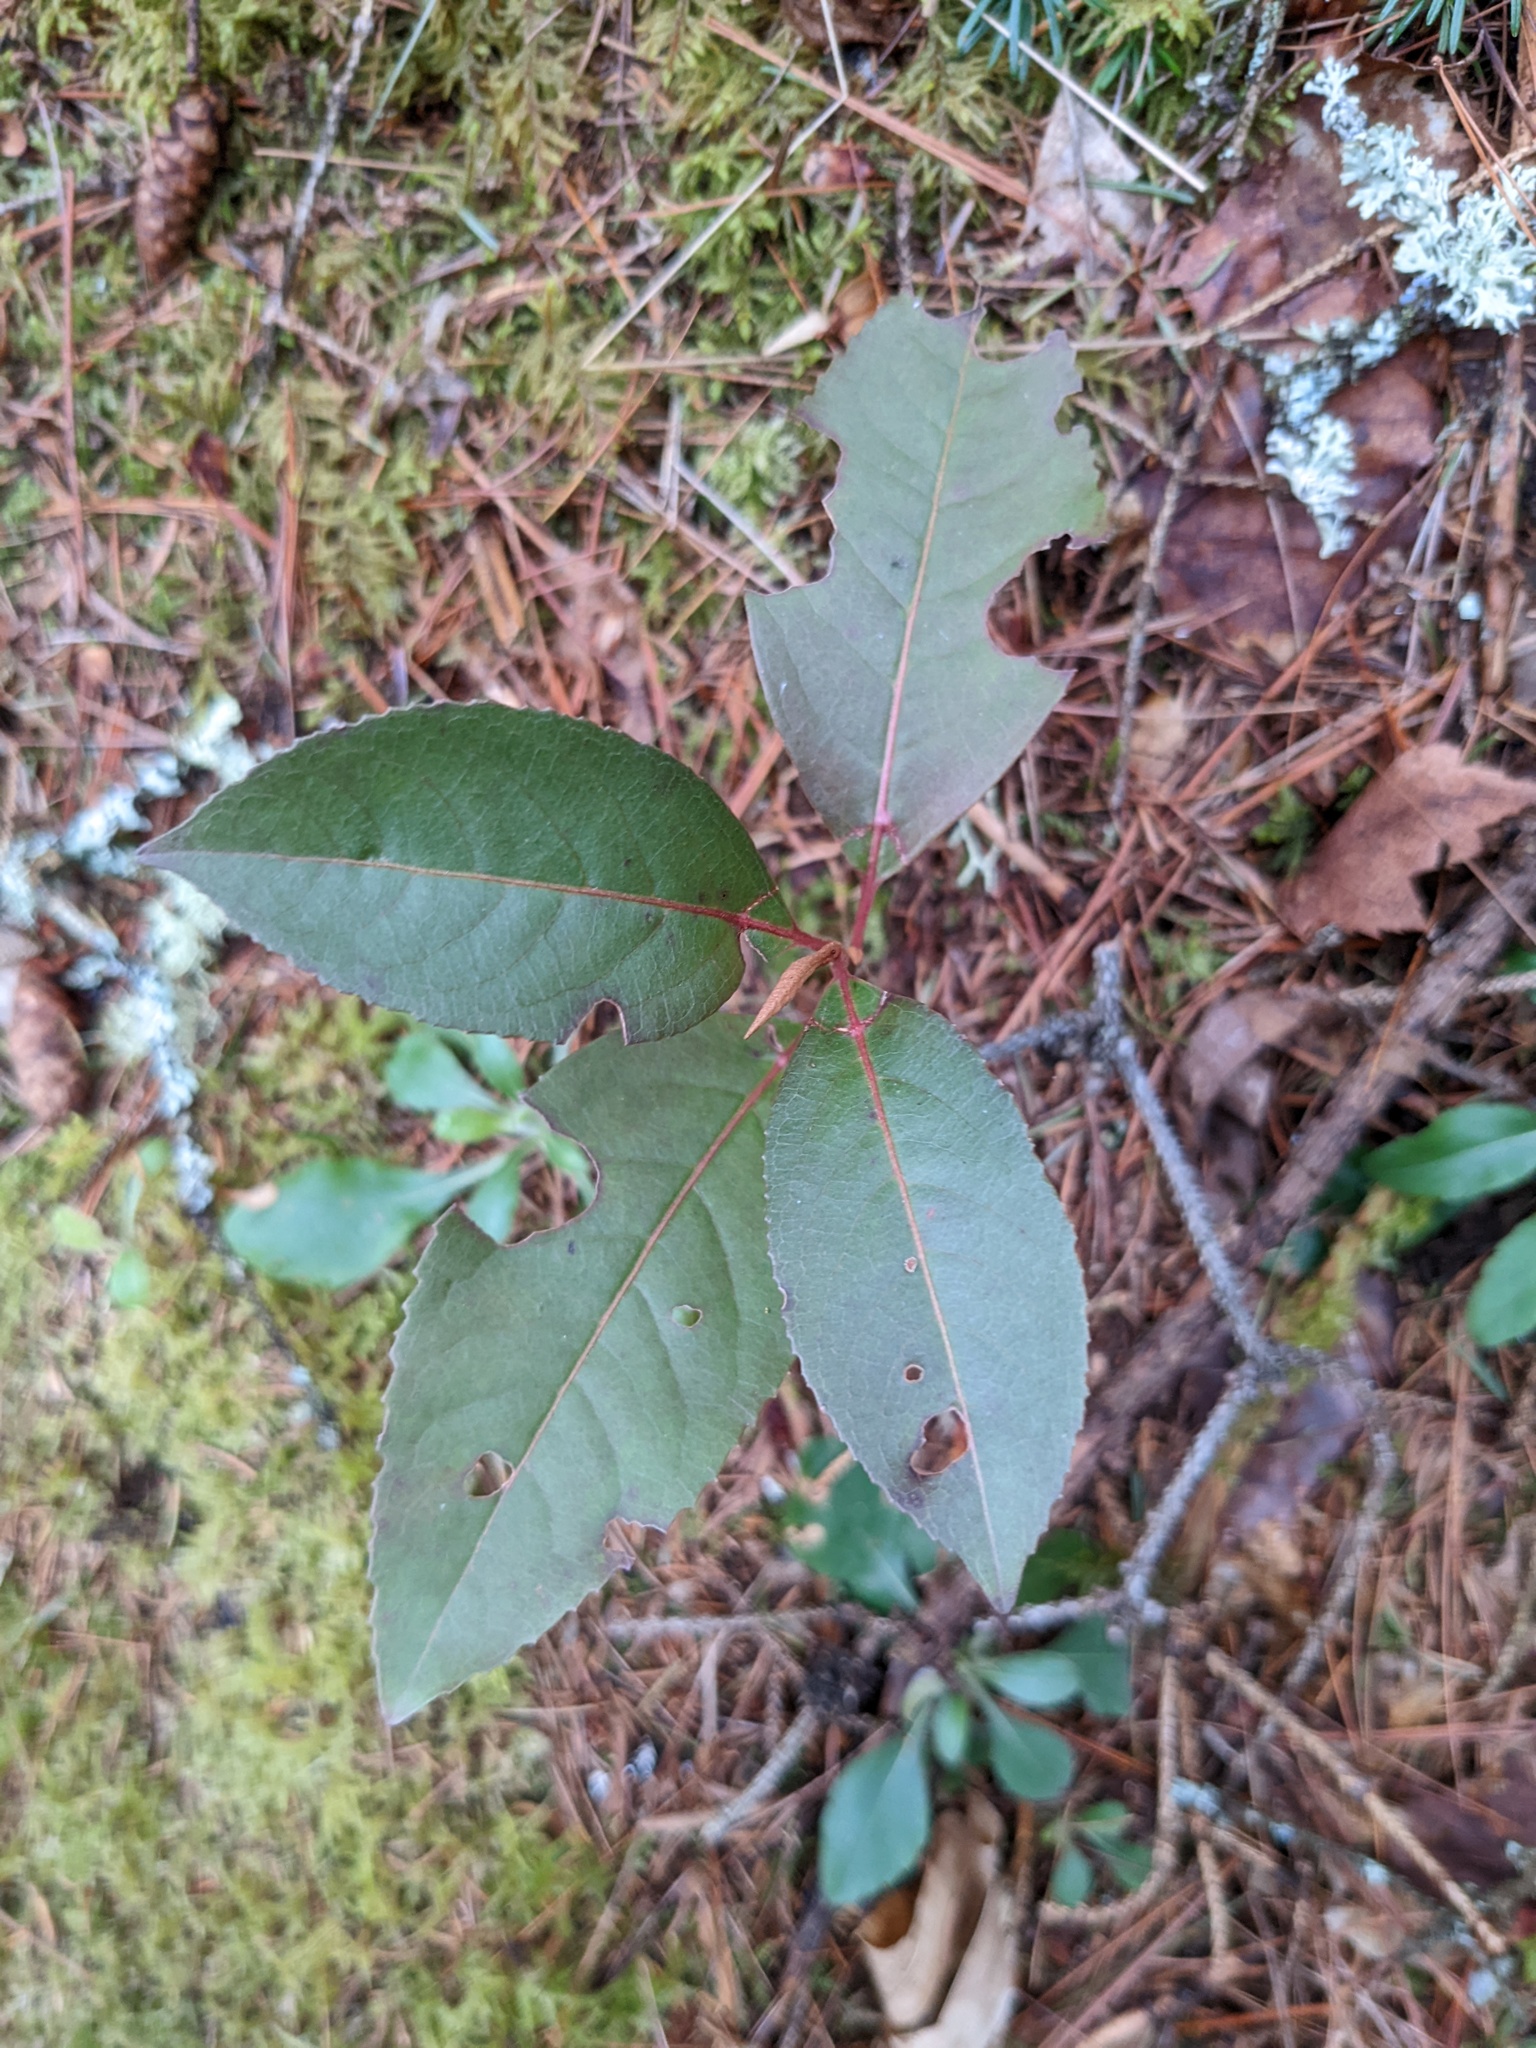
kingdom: Plantae
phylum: Tracheophyta
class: Magnoliopsida
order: Dipsacales
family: Viburnaceae
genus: Viburnum
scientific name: Viburnum cassinoides
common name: Swamp haw
